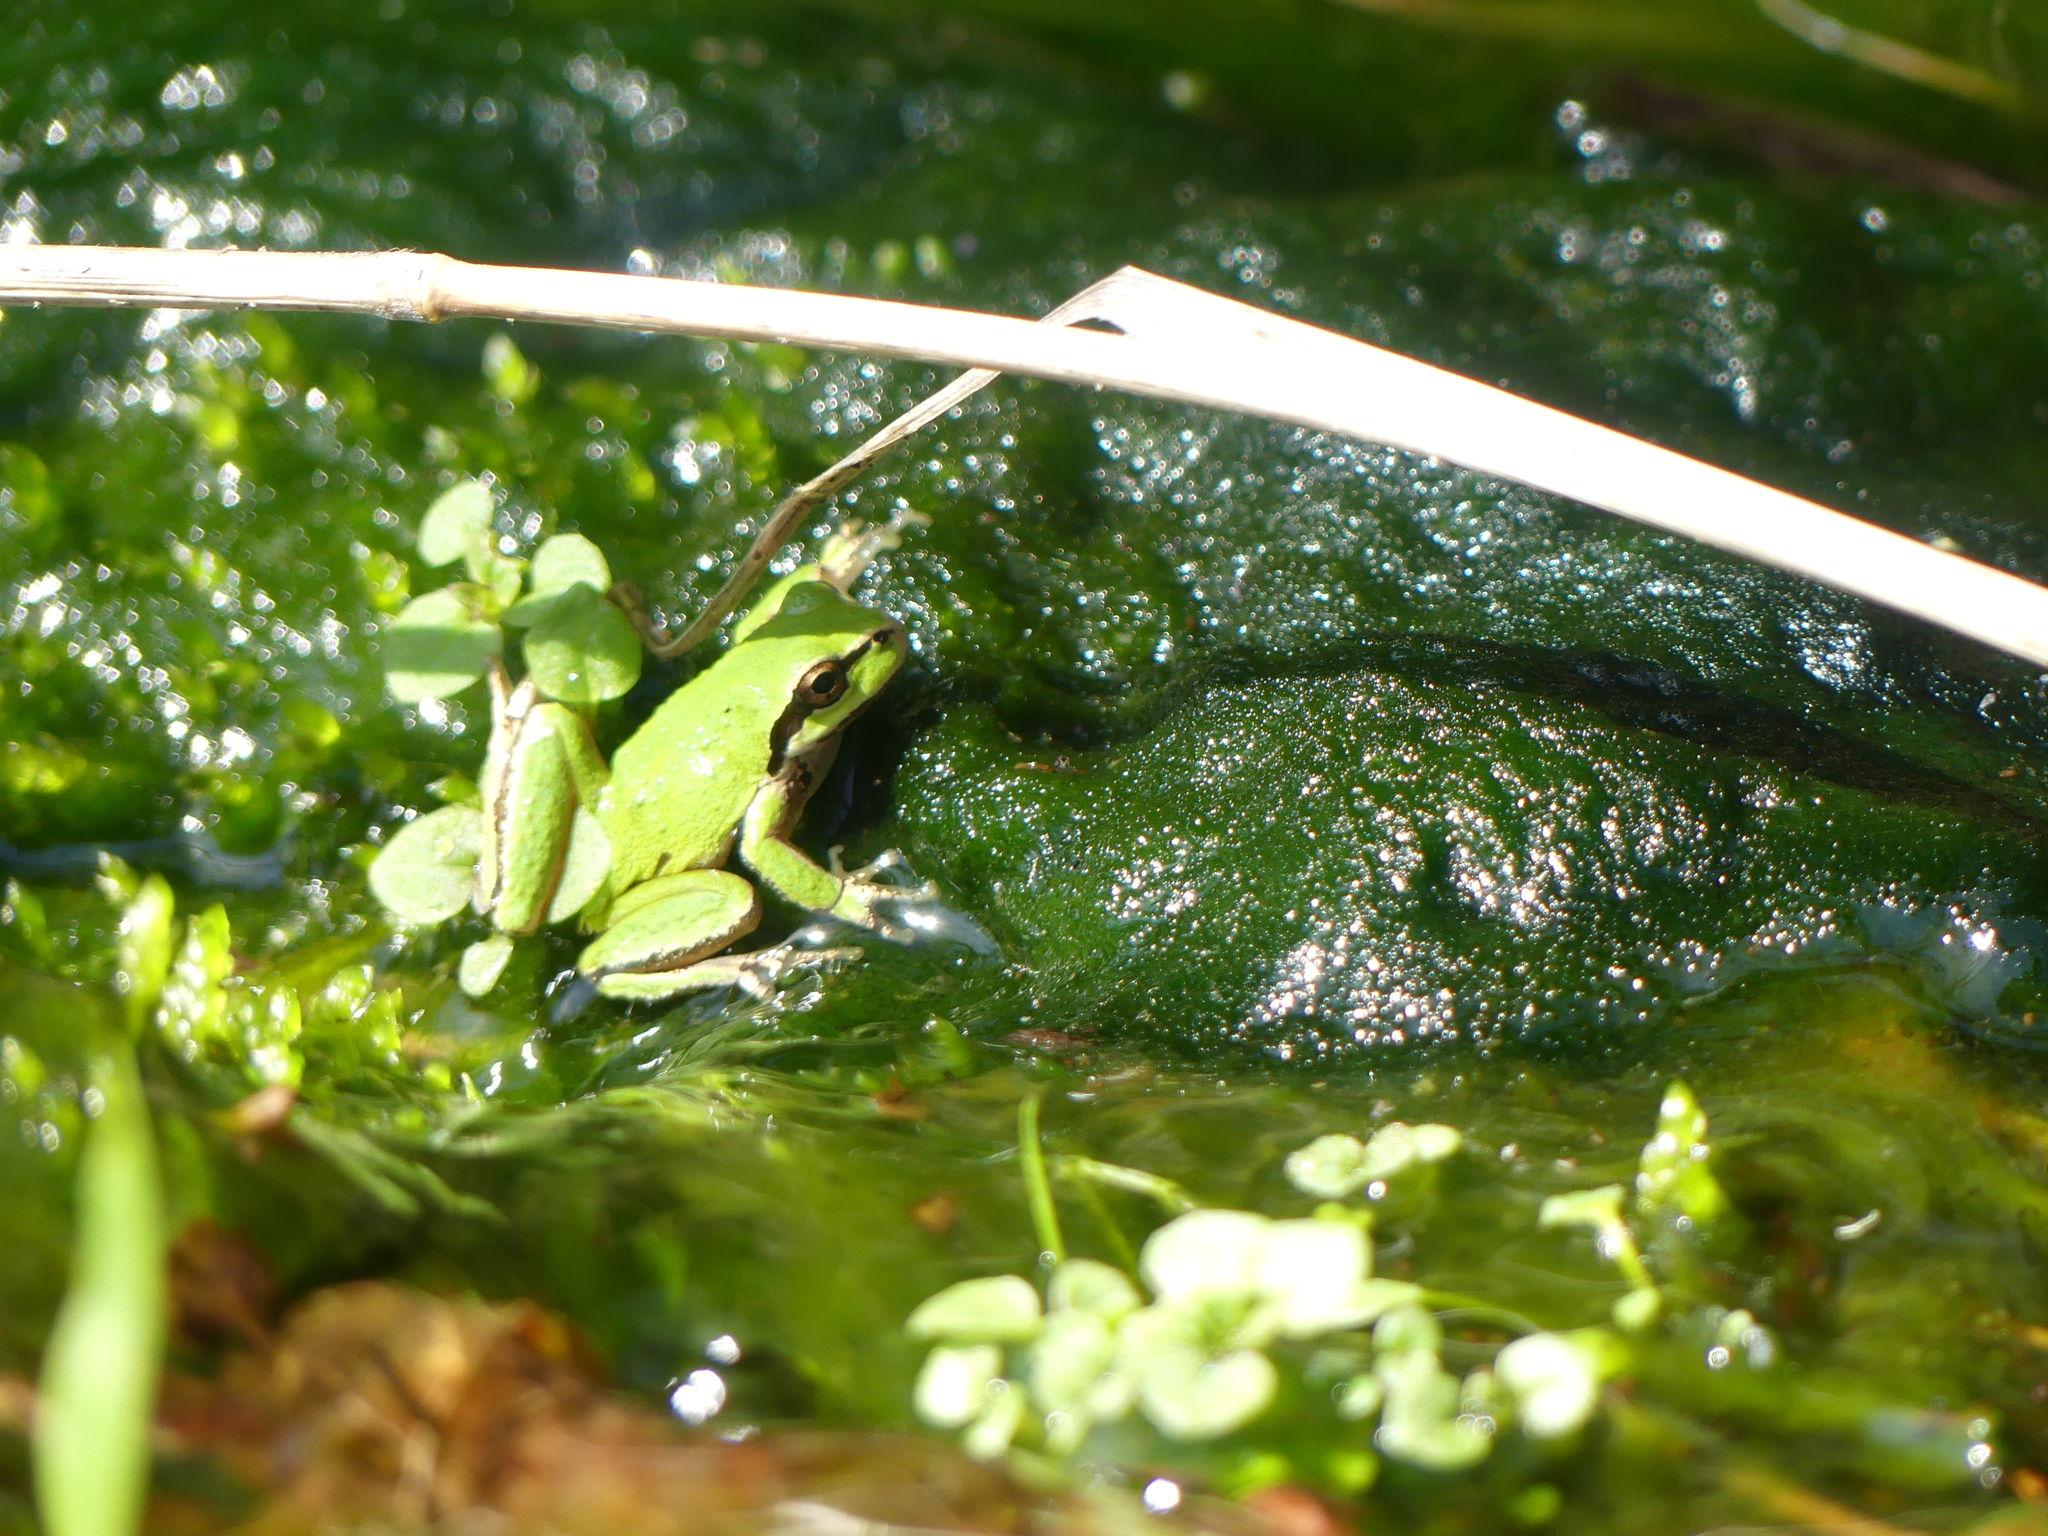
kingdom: Animalia
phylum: Chordata
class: Amphibia
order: Anura
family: Hylidae
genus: Pseudacris
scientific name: Pseudacris regilla
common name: Pacific chorus frog
